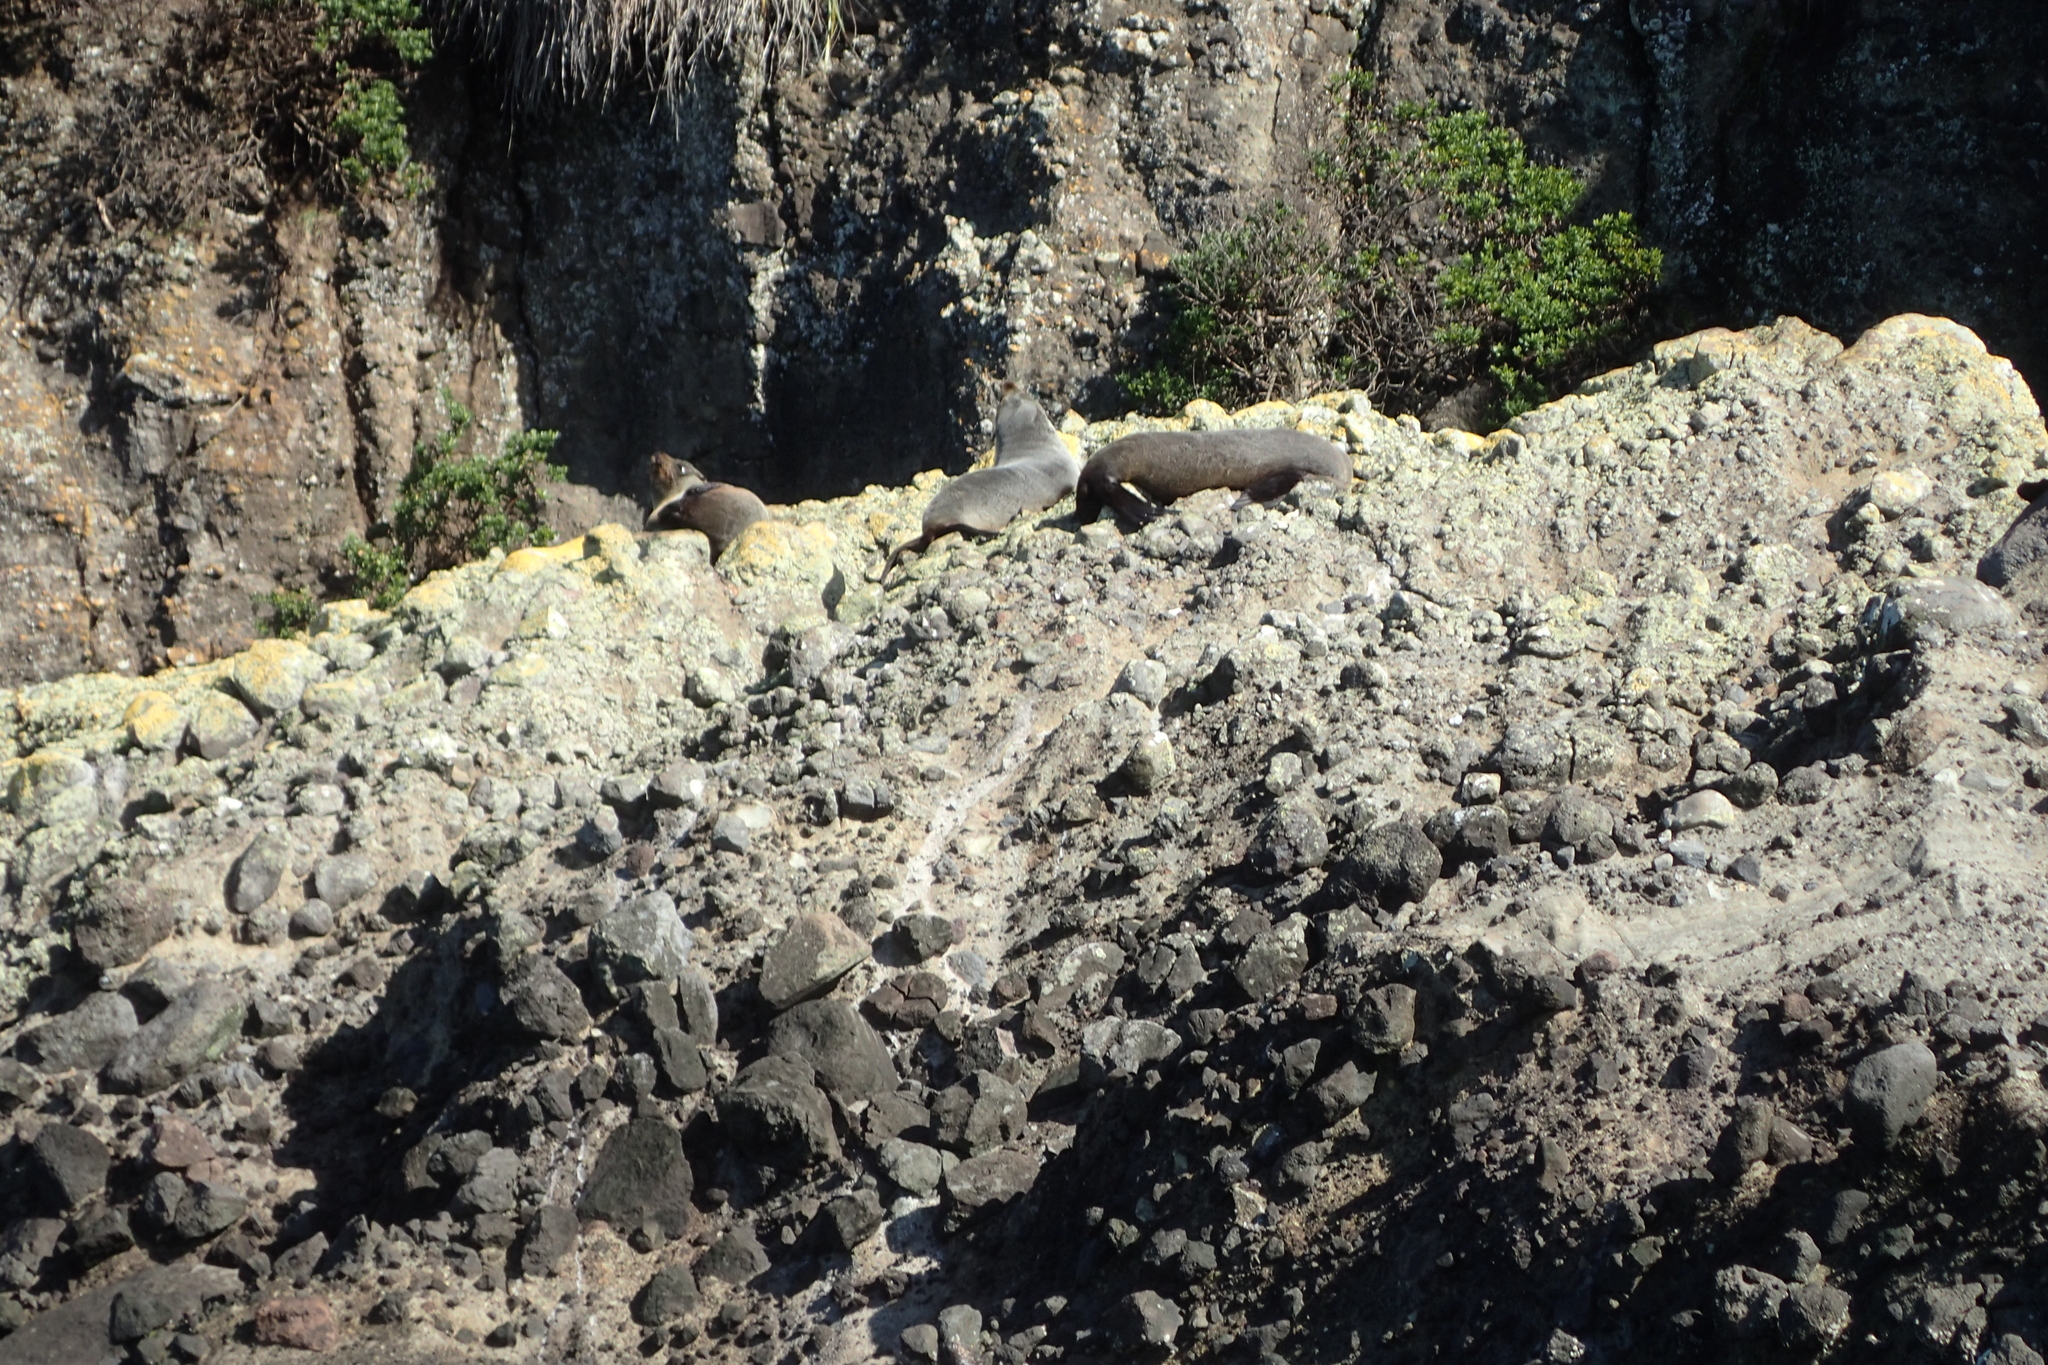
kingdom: Animalia
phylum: Chordata
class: Mammalia
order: Carnivora
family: Otariidae
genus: Arctocephalus
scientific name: Arctocephalus forsteri
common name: New zealand fur seal
